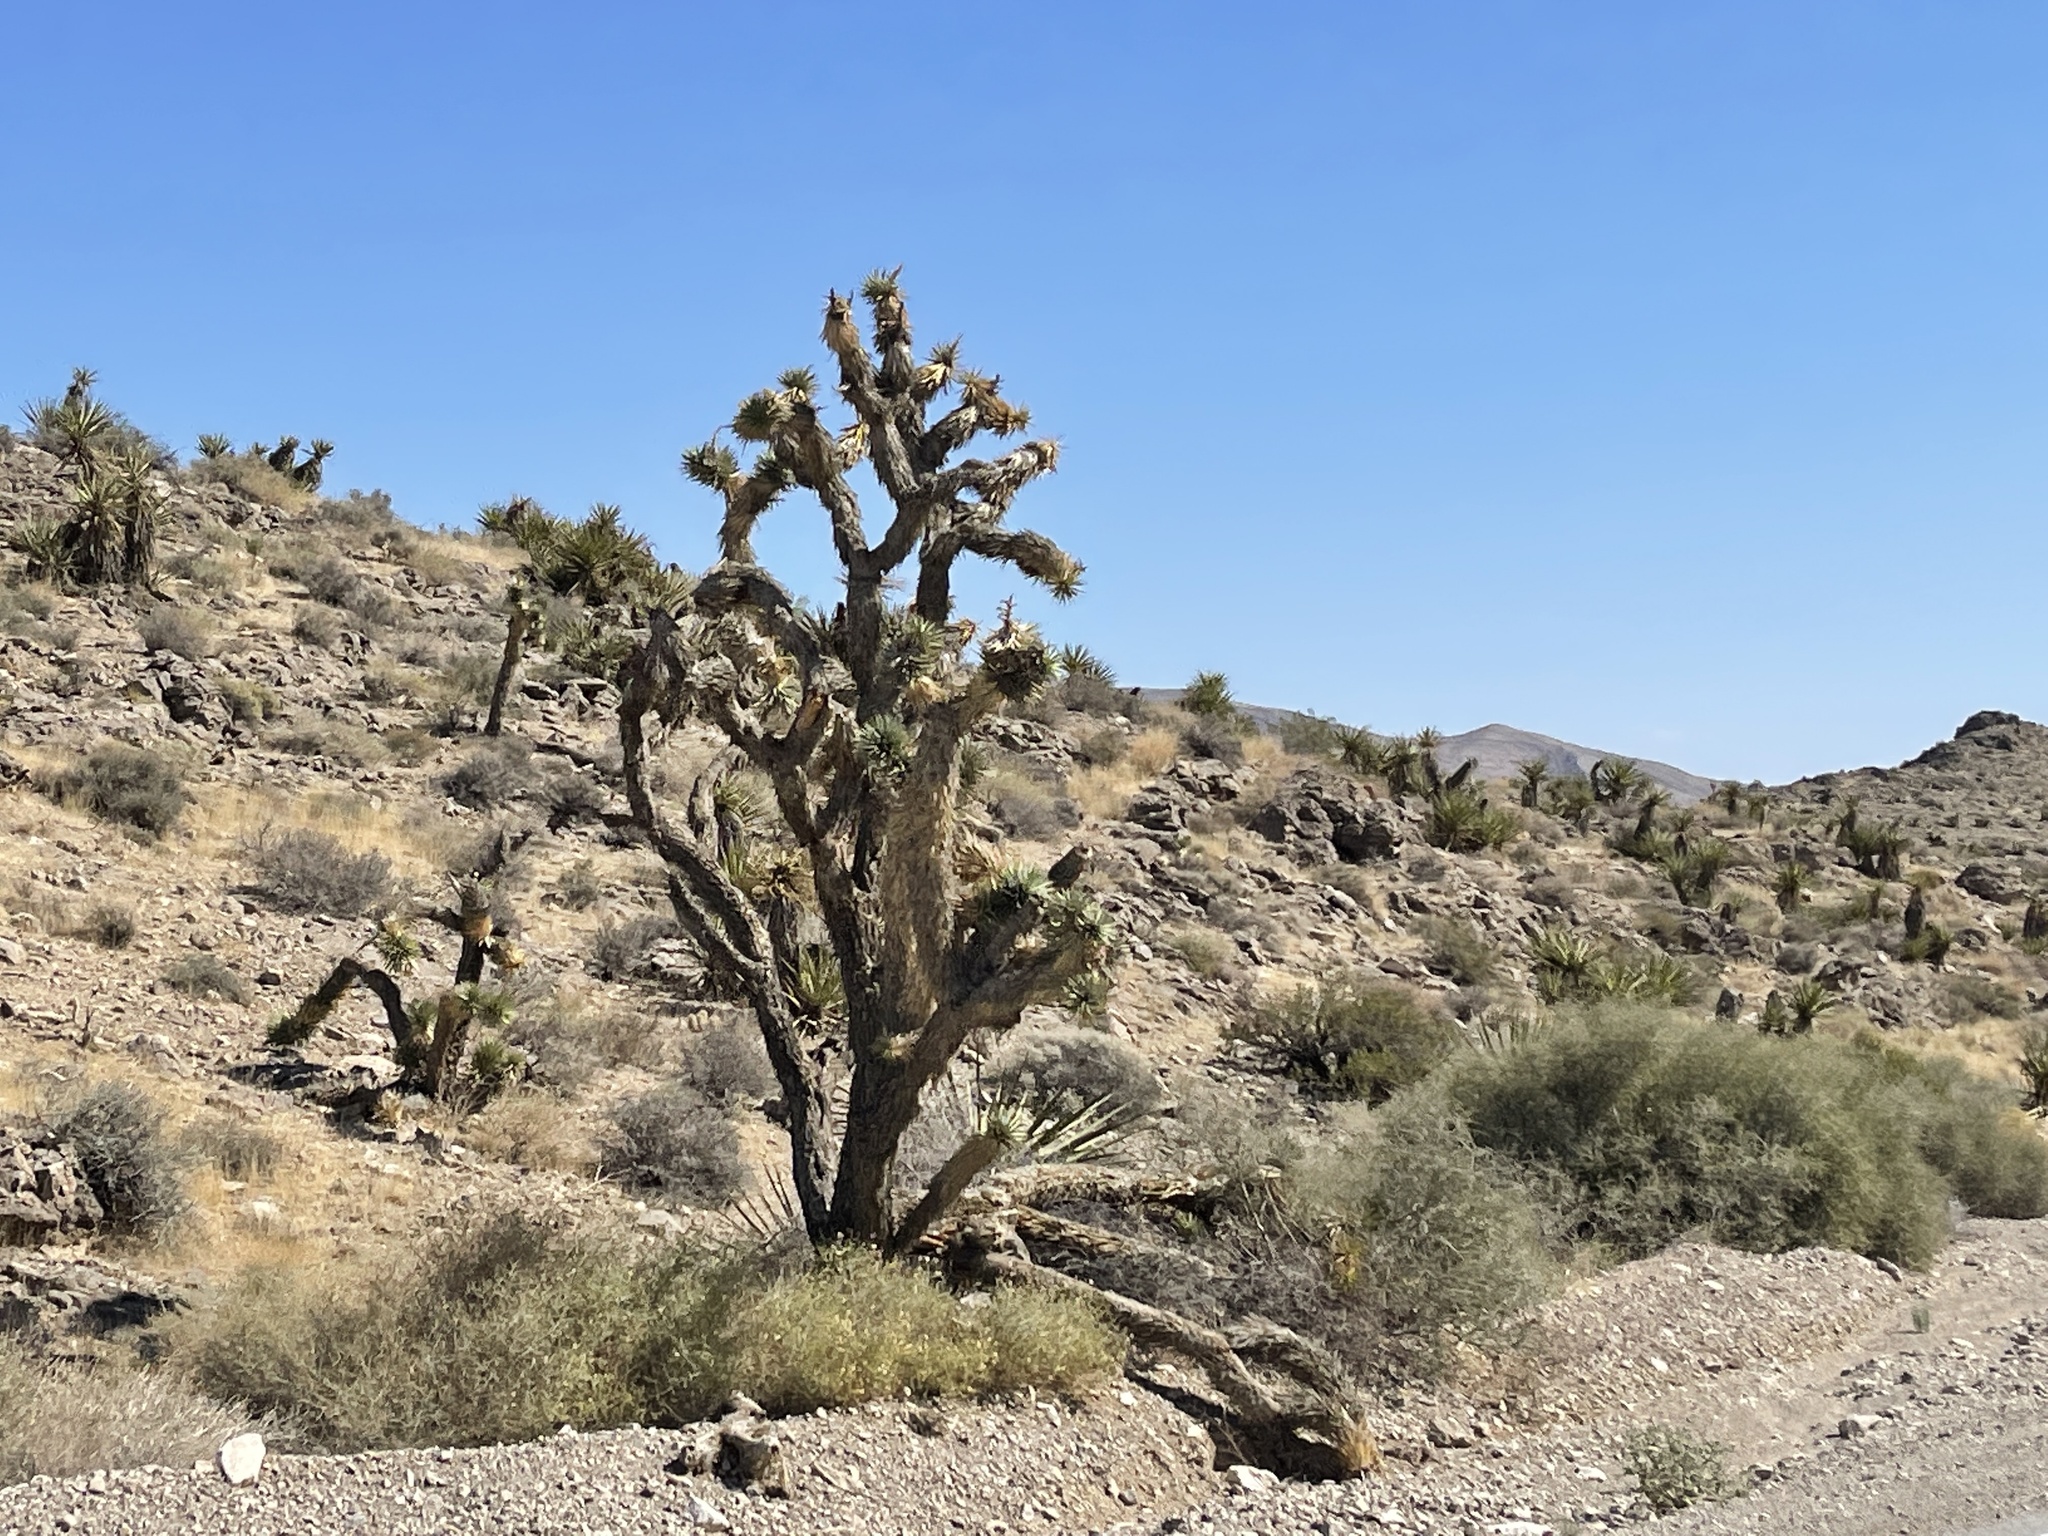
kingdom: Plantae
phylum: Tracheophyta
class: Liliopsida
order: Asparagales
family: Asparagaceae
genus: Yucca
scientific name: Yucca brevifolia
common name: Joshua tree
